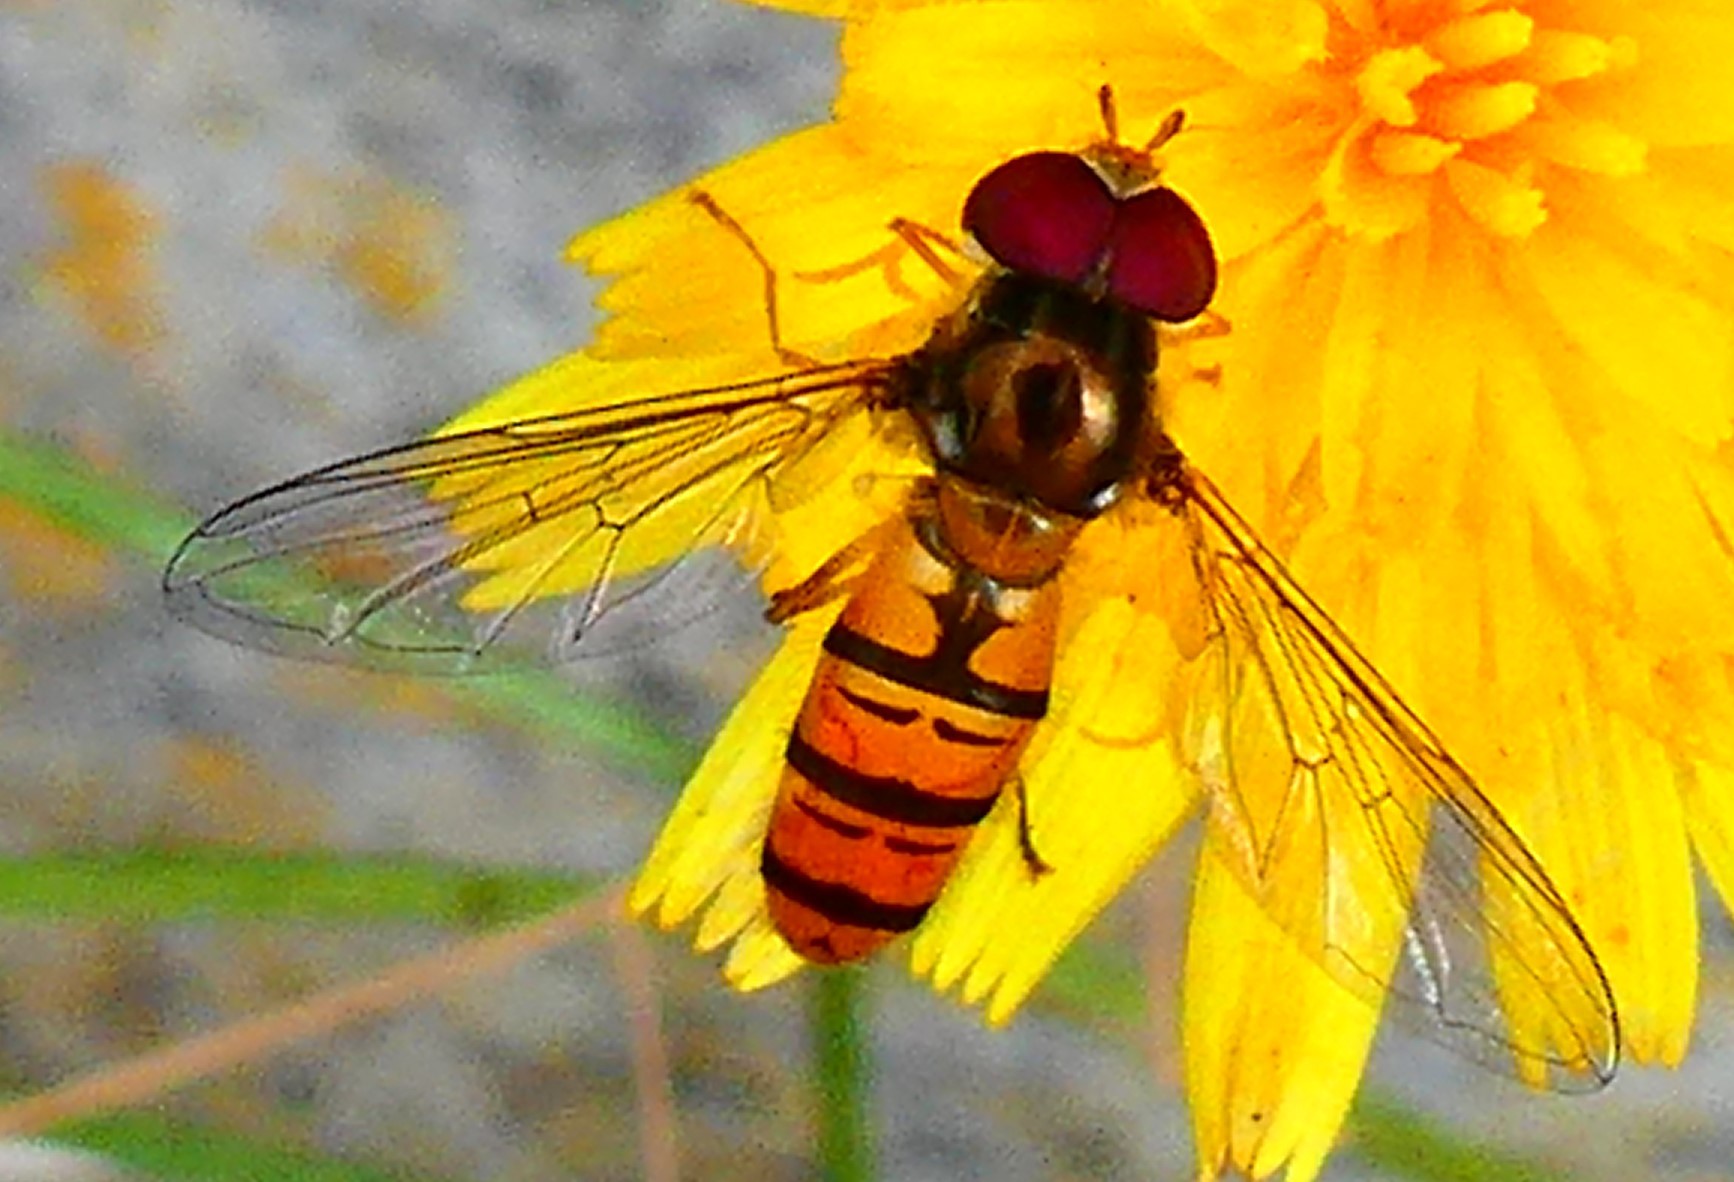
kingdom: Animalia
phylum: Arthropoda
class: Insecta
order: Diptera
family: Syrphidae
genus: Episyrphus
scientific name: Episyrphus balteatus
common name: Marmalade hoverfly
